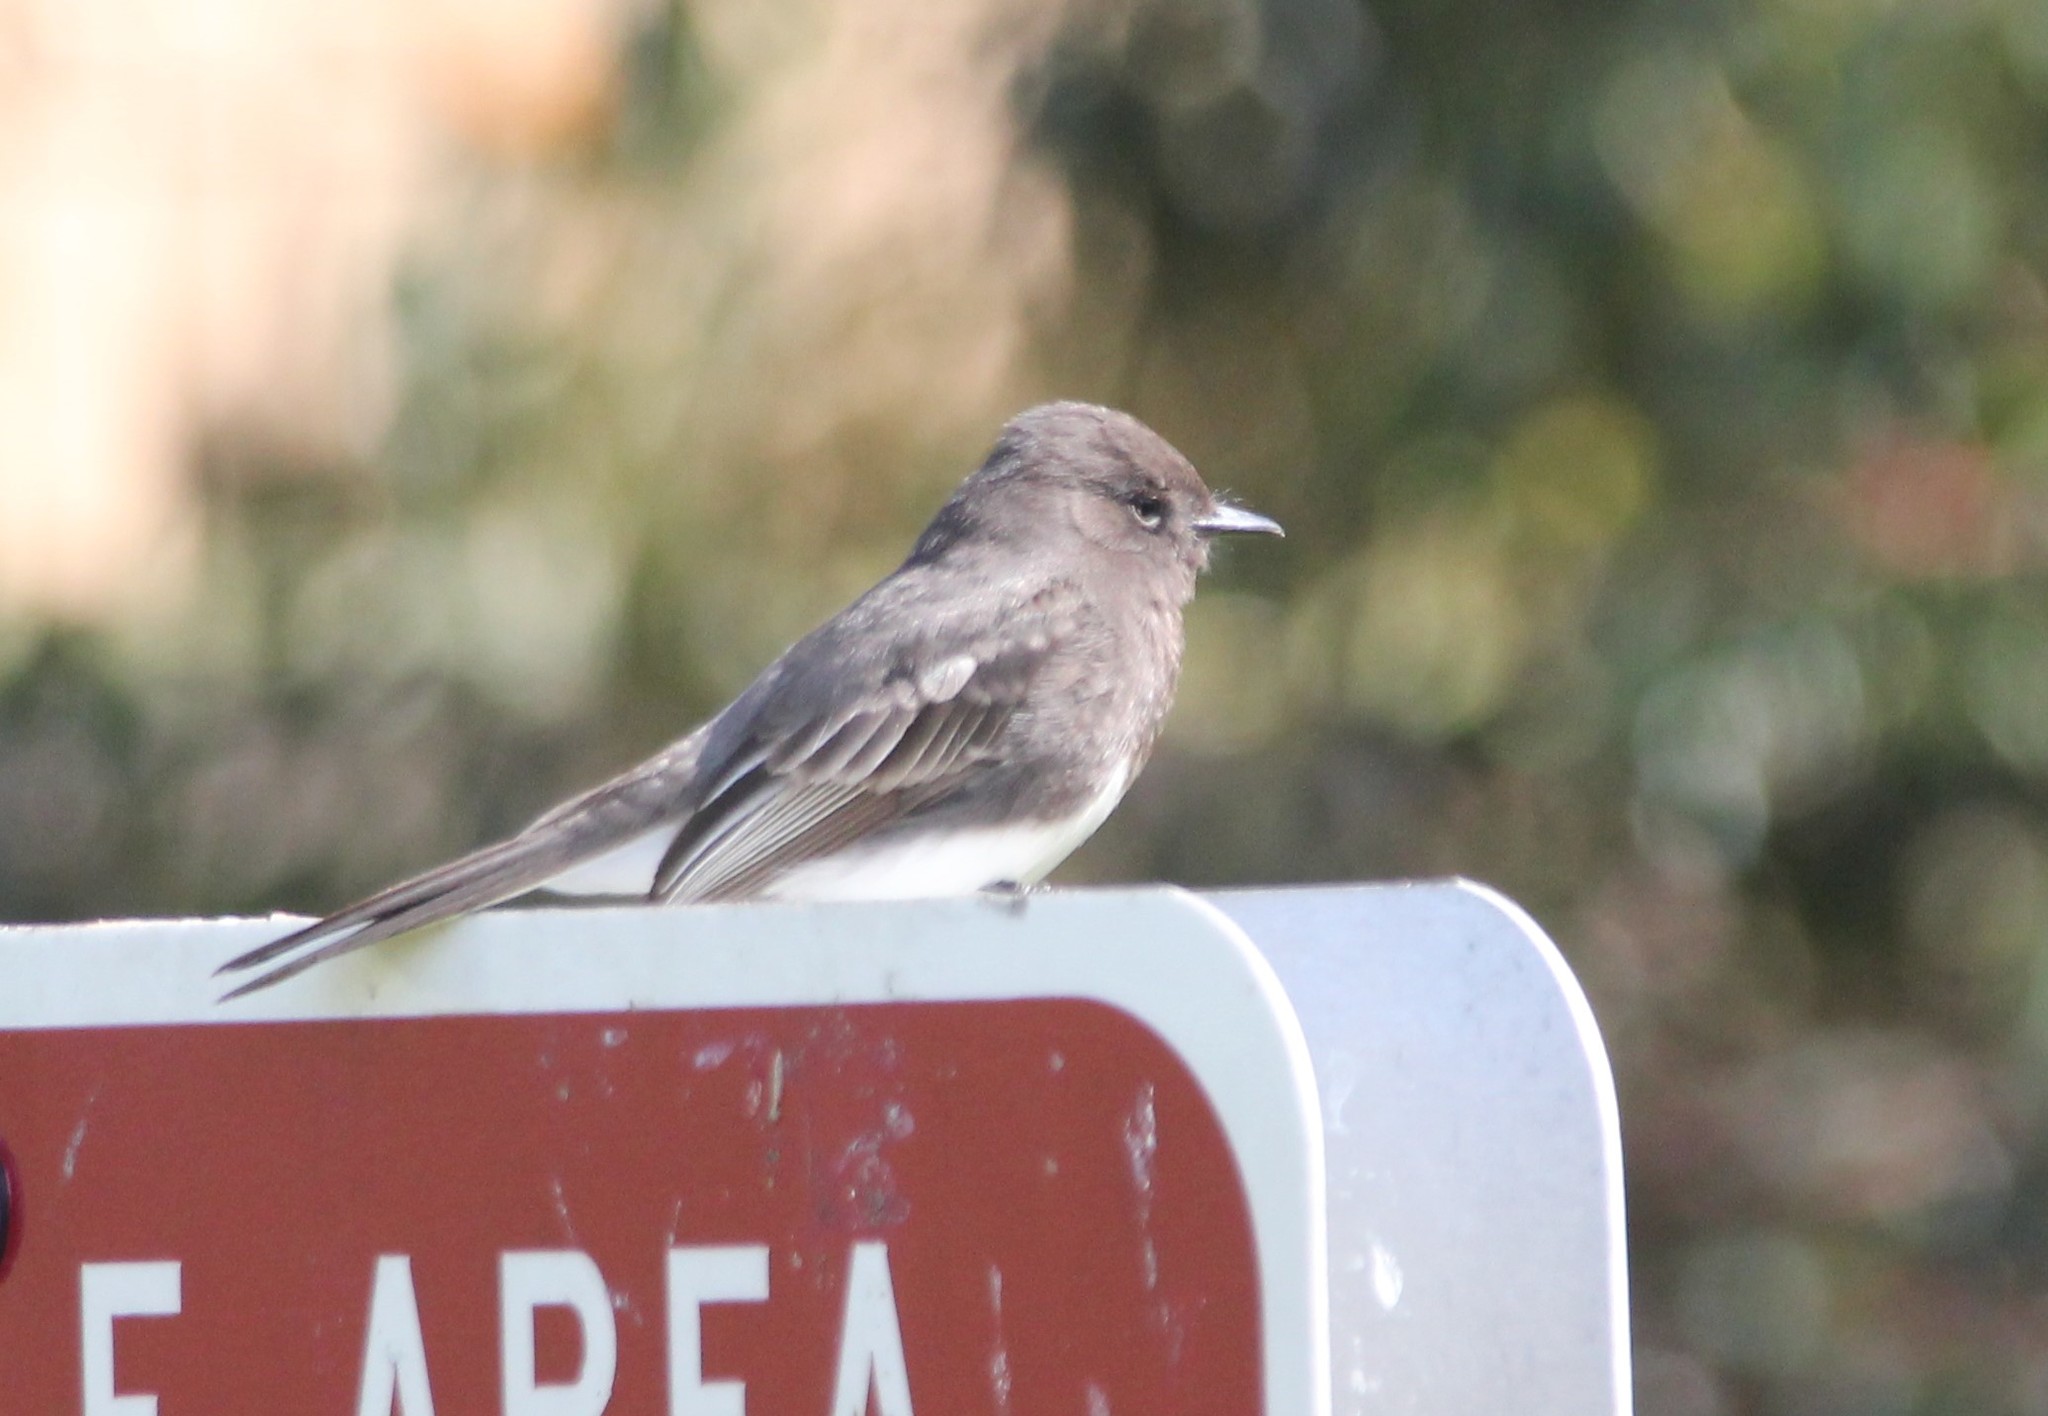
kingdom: Animalia
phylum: Chordata
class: Aves
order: Passeriformes
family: Tyrannidae
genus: Sayornis
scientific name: Sayornis nigricans
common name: Black phoebe
